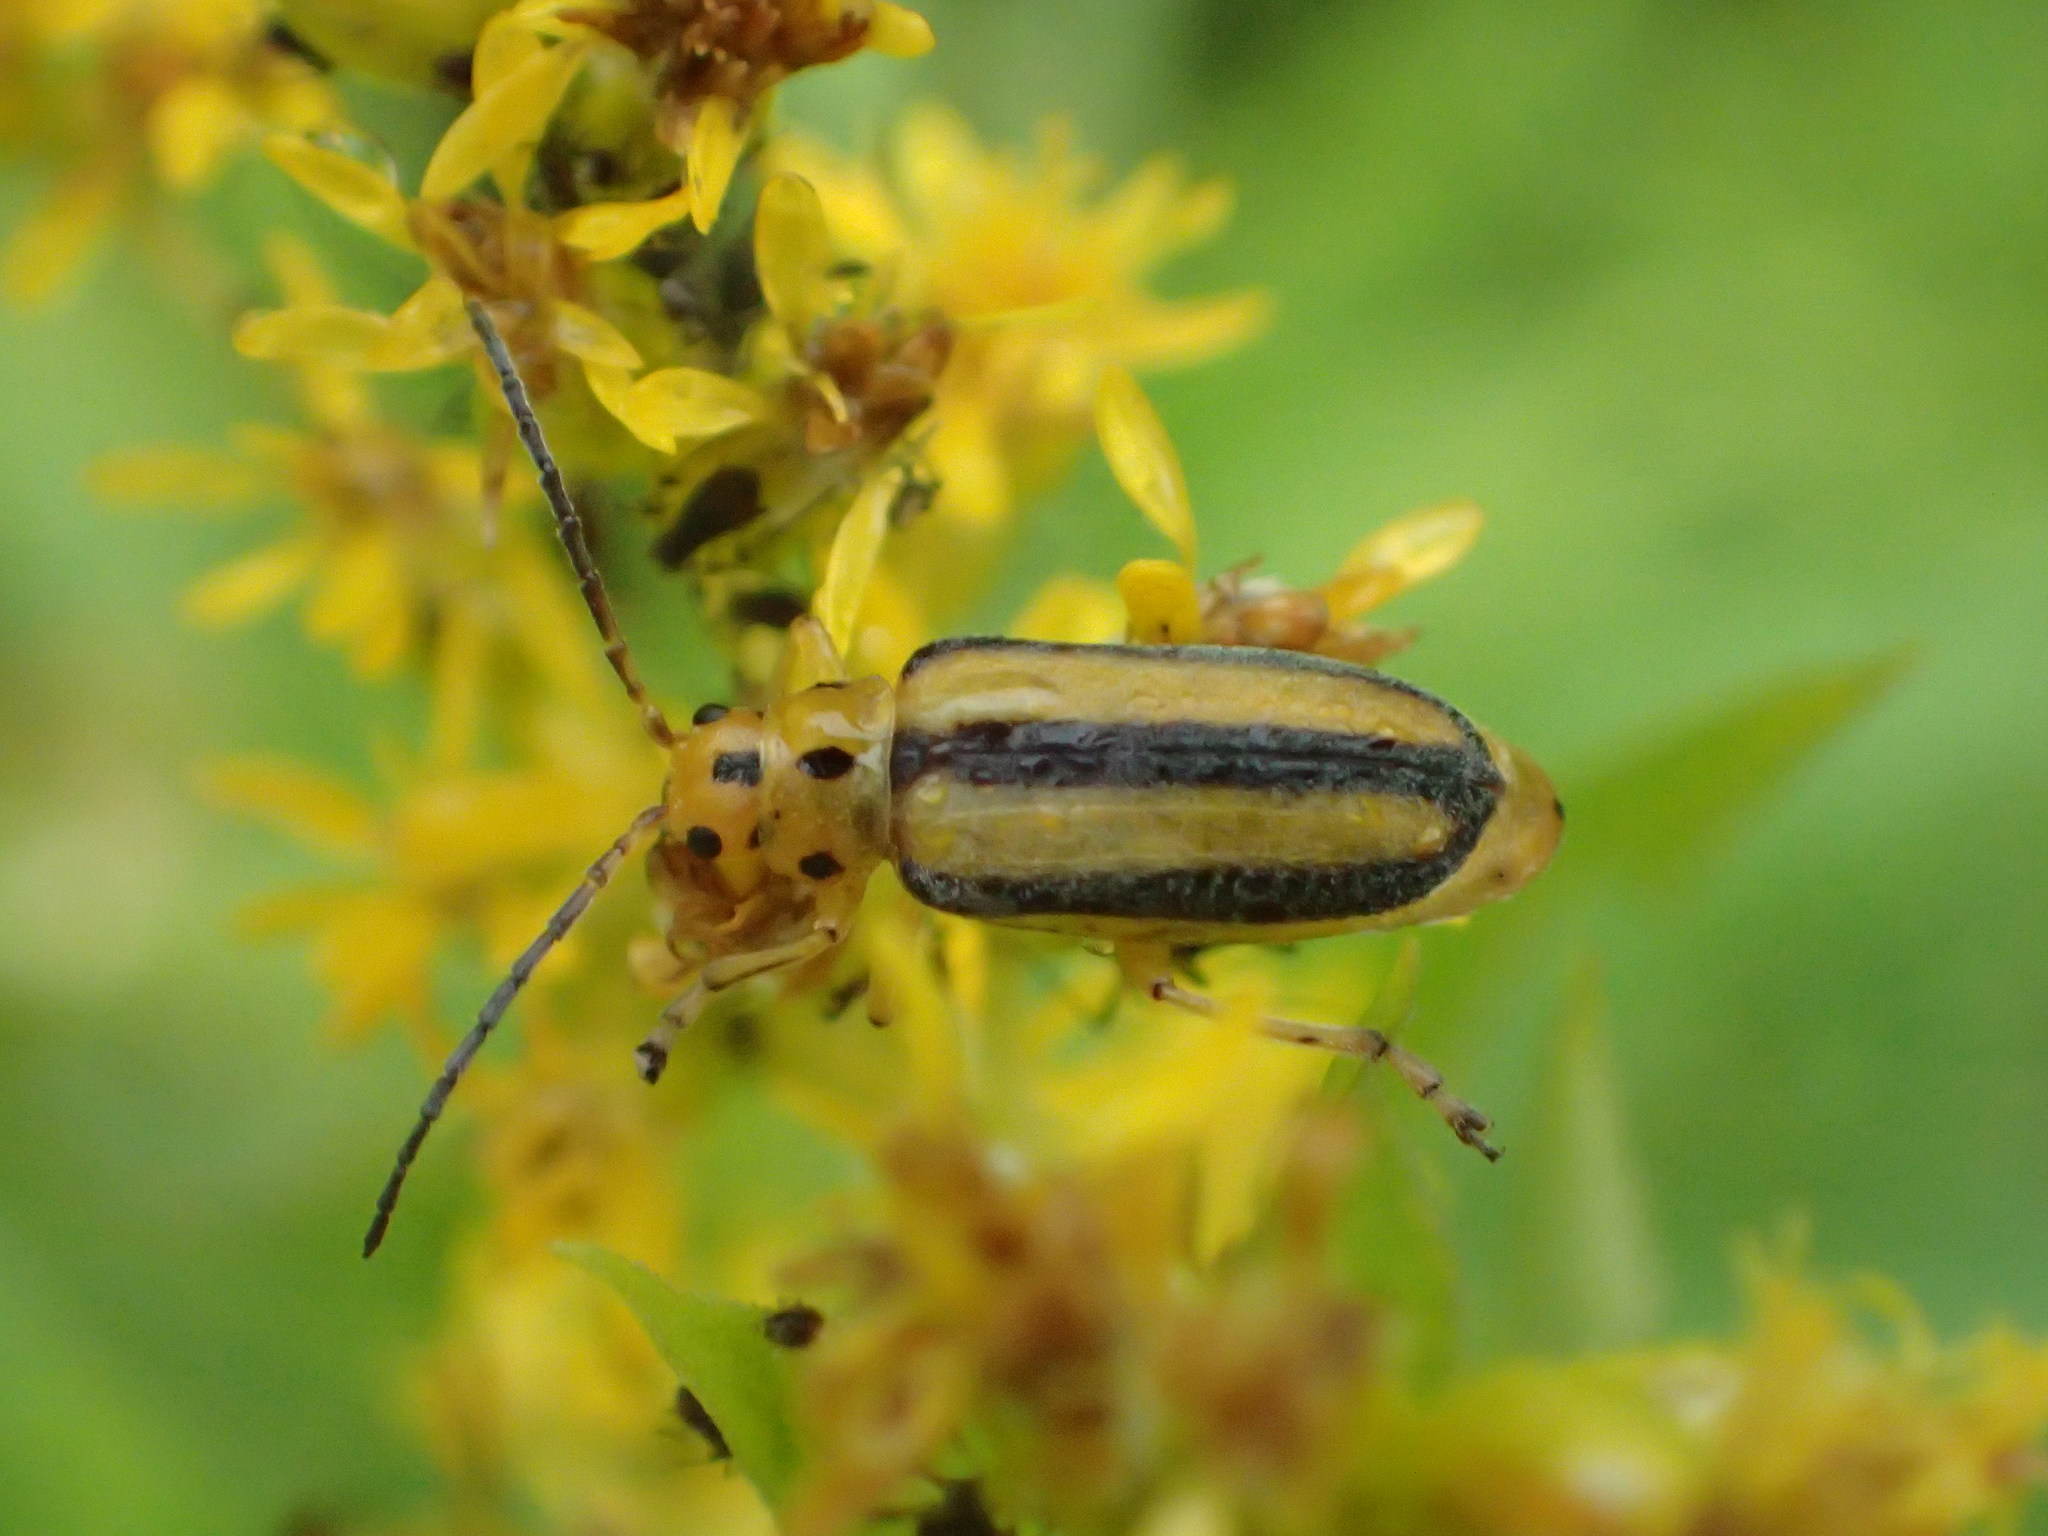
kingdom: Animalia
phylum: Arthropoda
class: Insecta
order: Coleoptera
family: Chrysomelidae
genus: Trirhabda
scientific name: Trirhabda canadensis
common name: Goldenrod leaf beetle
